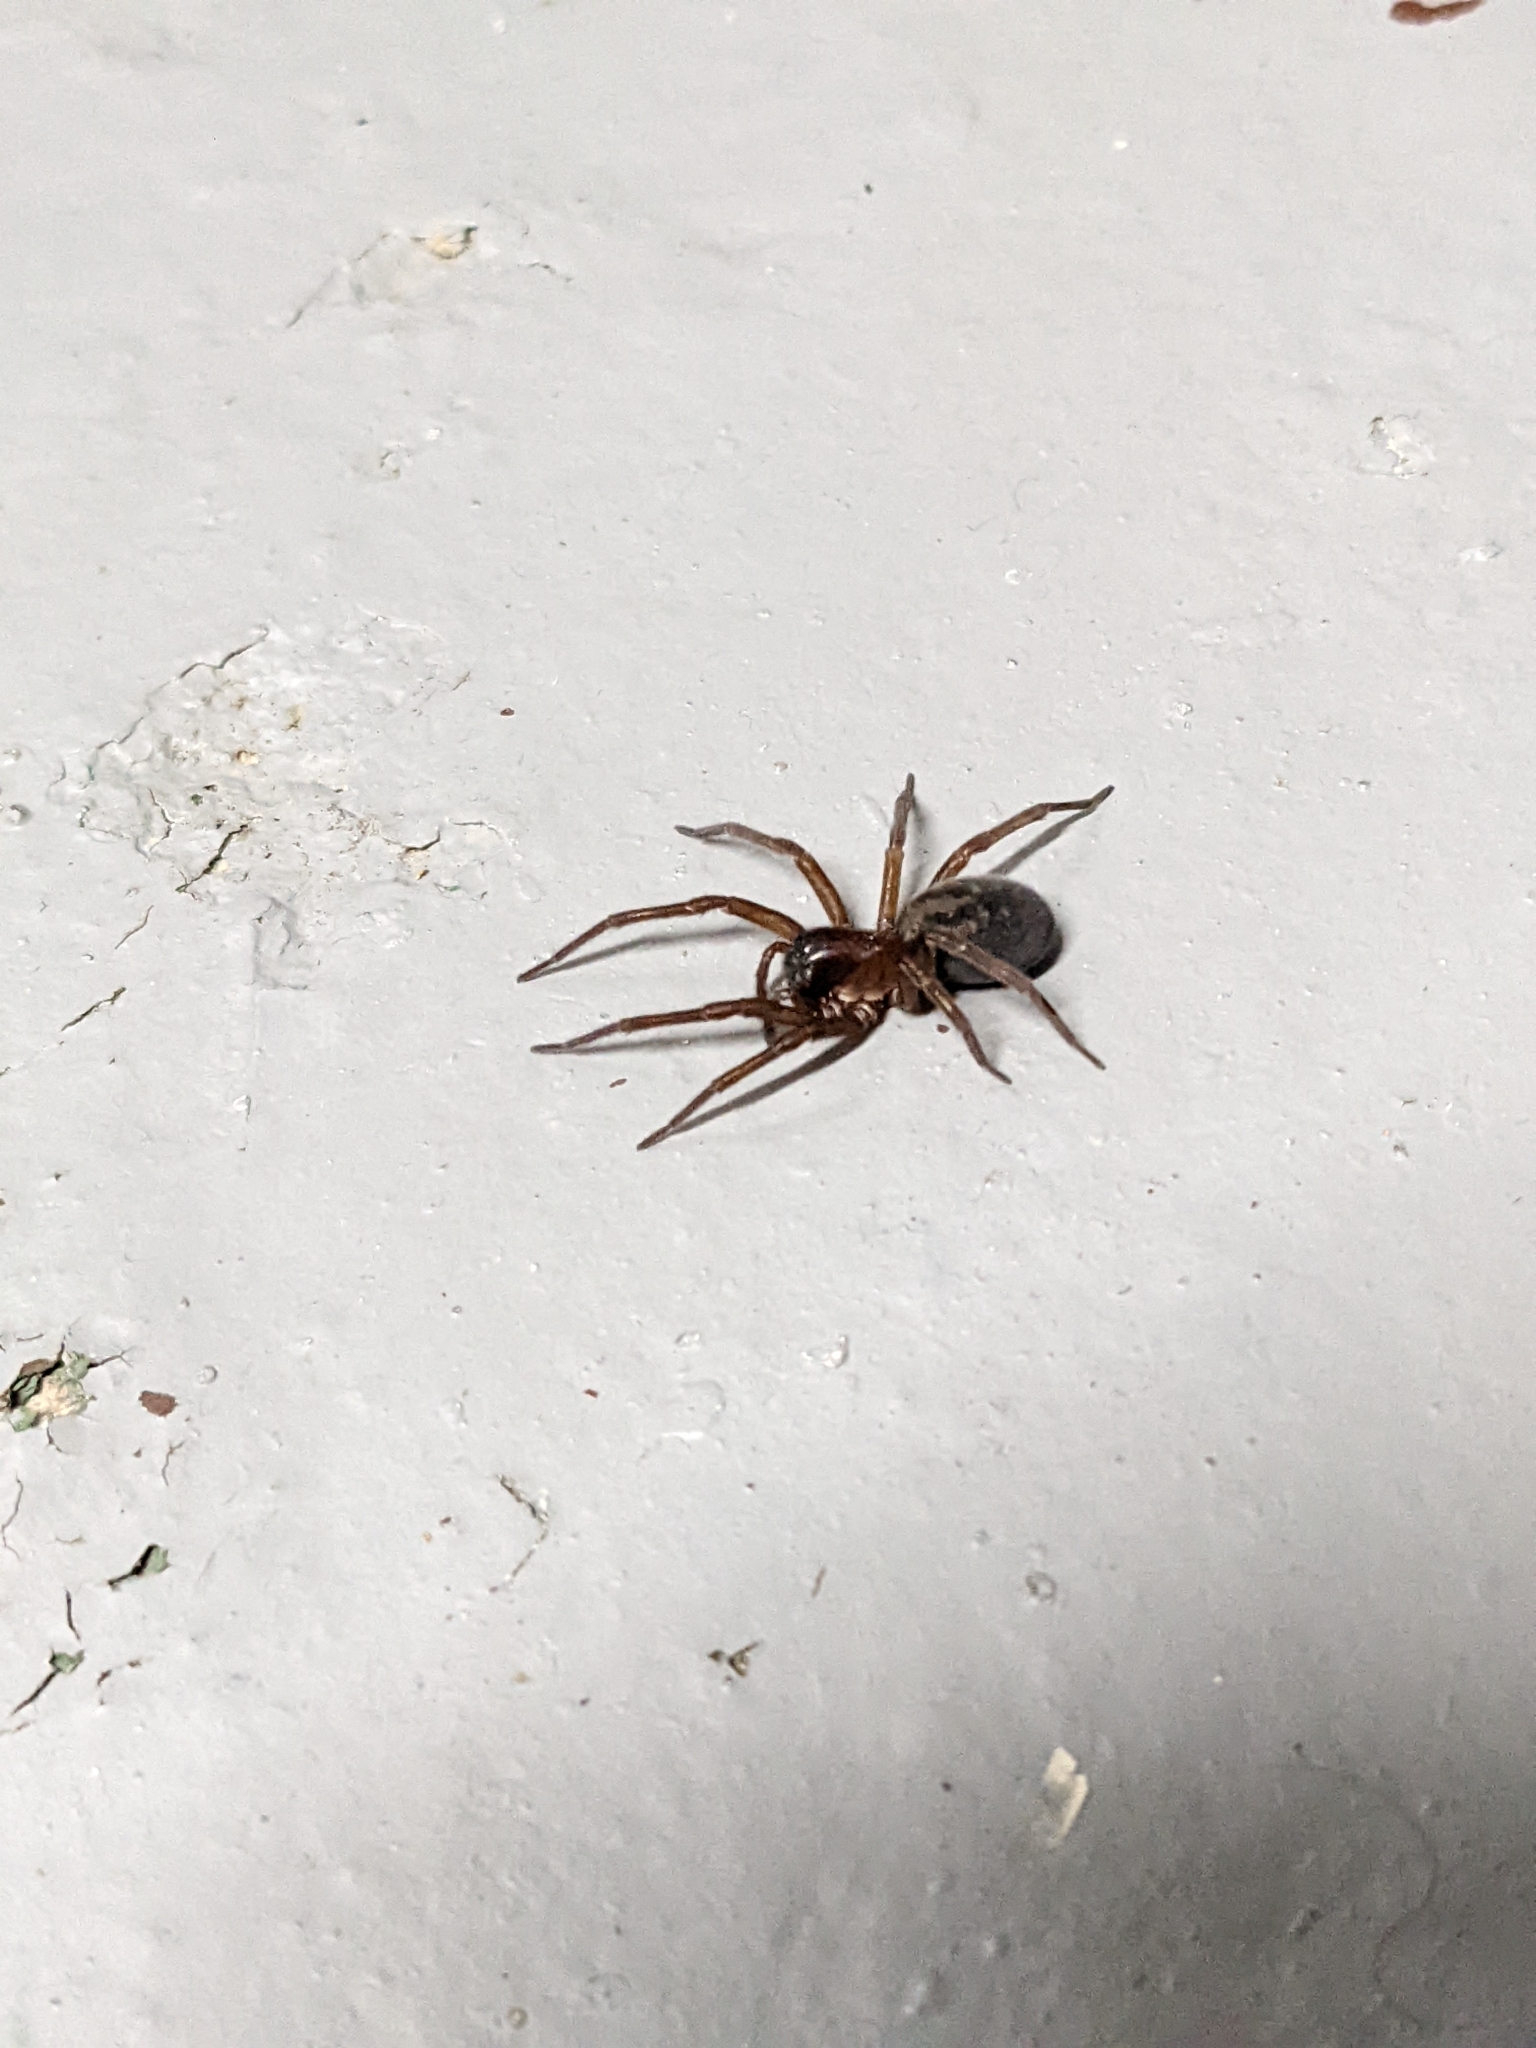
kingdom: Animalia
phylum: Arthropoda
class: Arachnida
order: Araneae
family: Amaurobiidae
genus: Amaurobius
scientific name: Amaurobius ferox
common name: Black laceweaver
